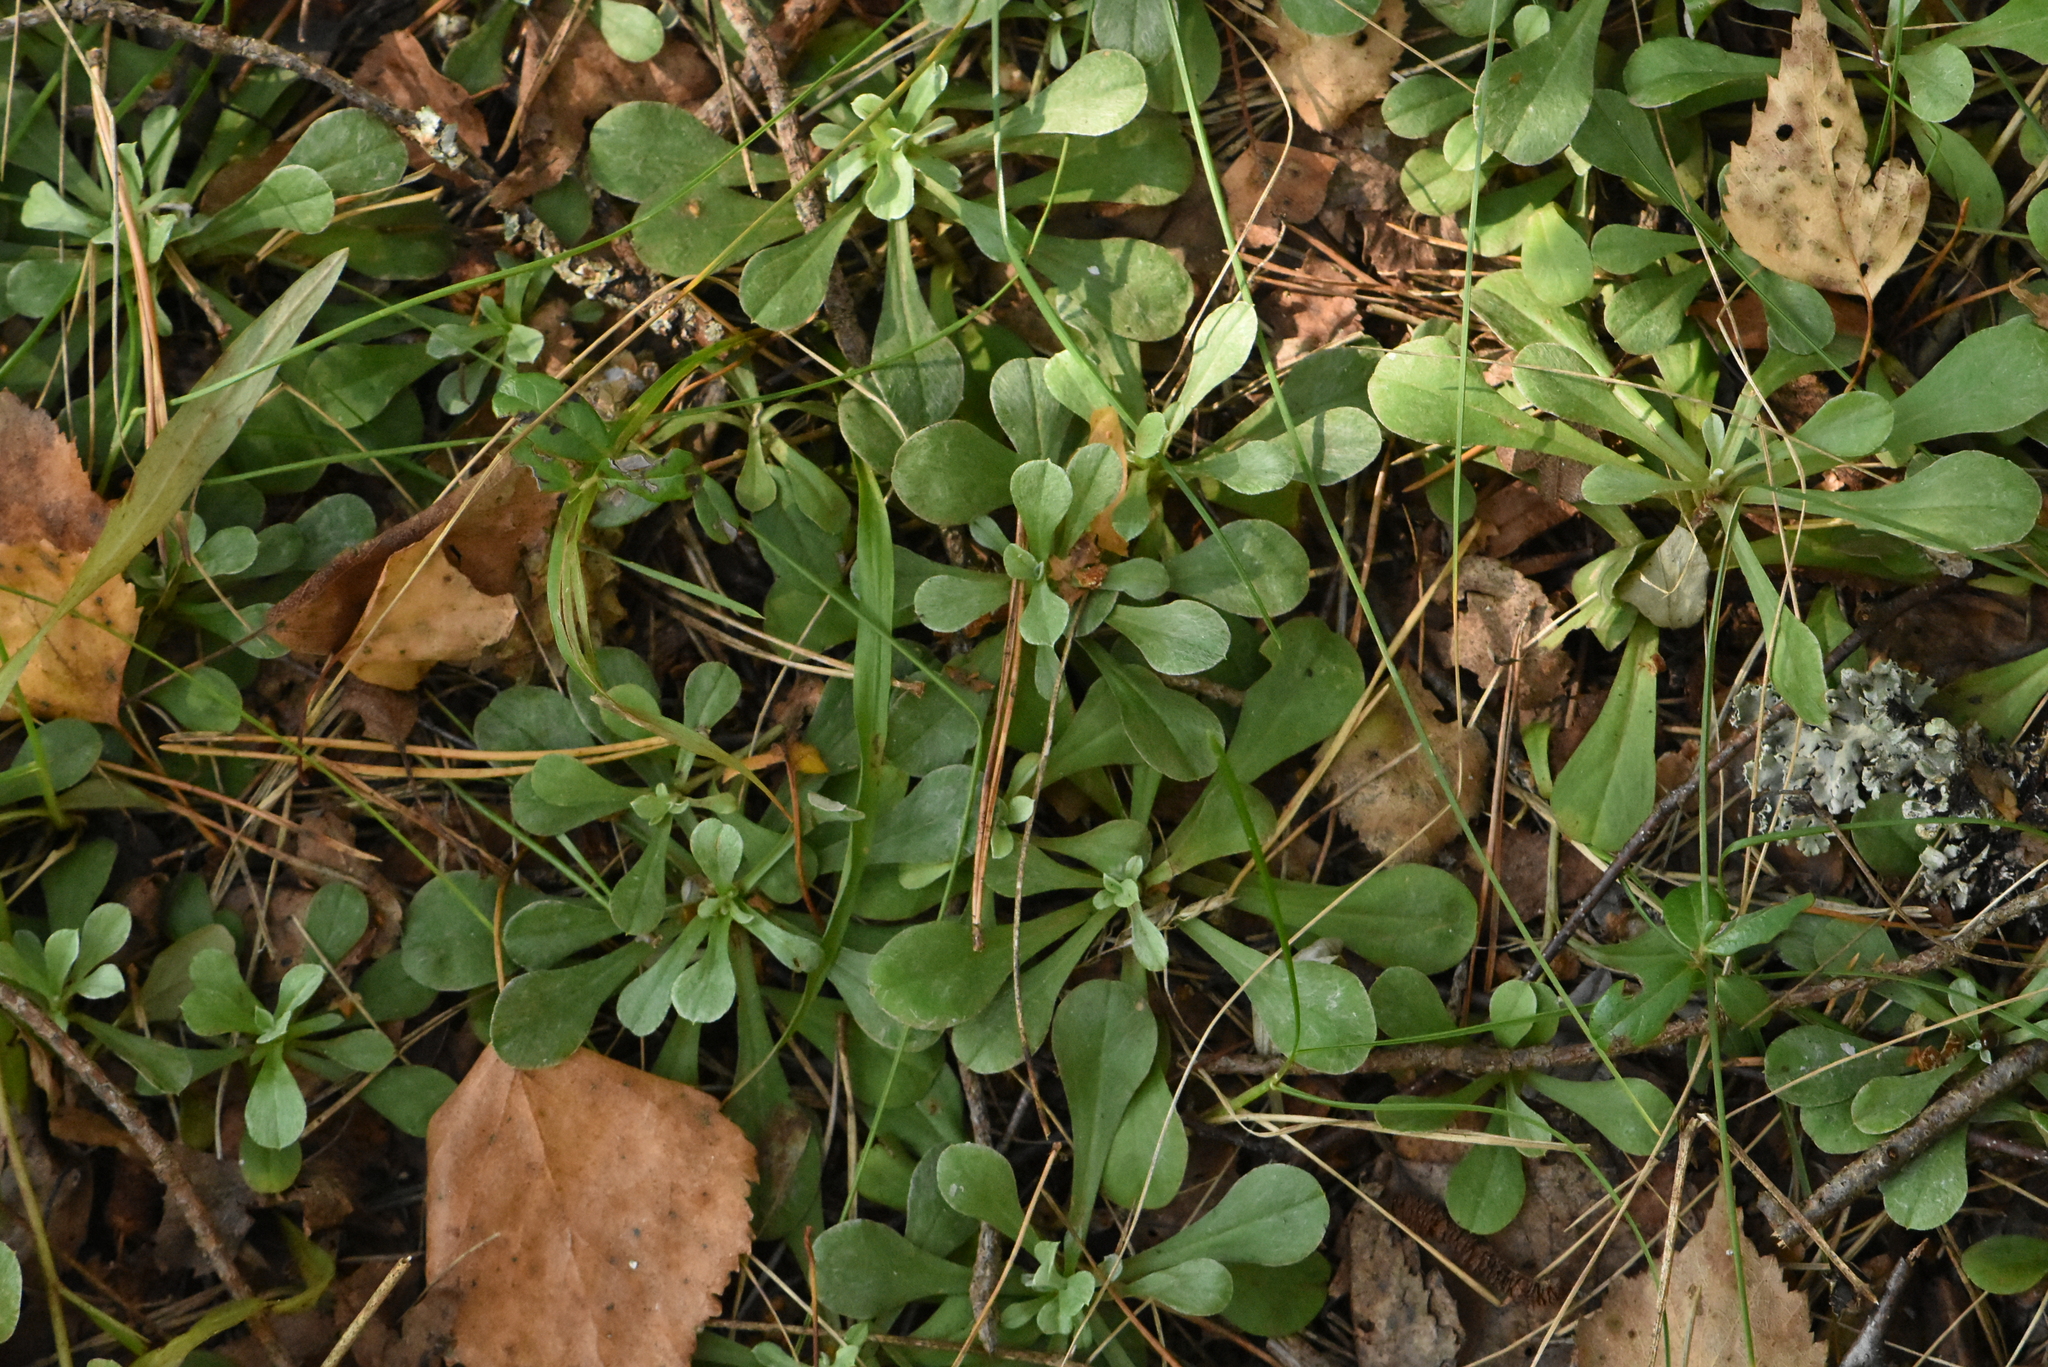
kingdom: Plantae
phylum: Tracheophyta
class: Magnoliopsida
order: Asterales
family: Asteraceae
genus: Antennaria
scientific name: Antennaria dioica
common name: Mountain everlasting
